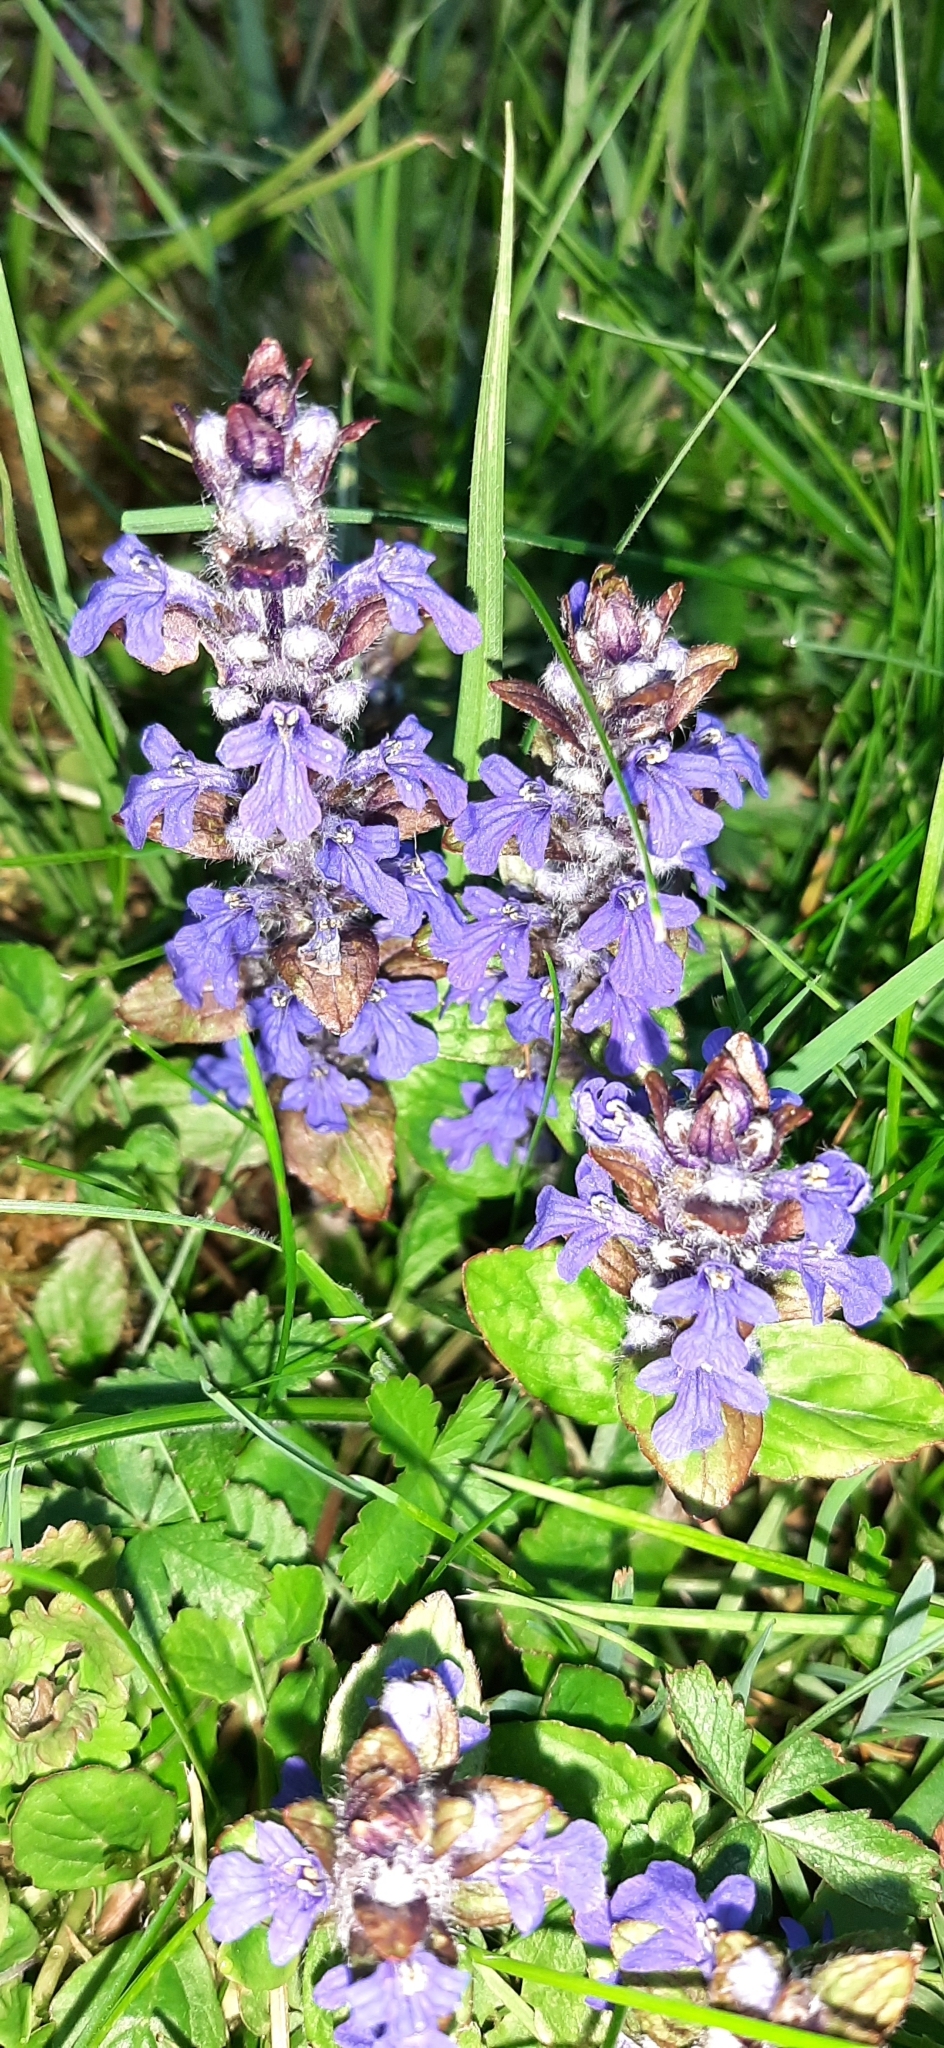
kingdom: Plantae
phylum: Tracheophyta
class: Magnoliopsida
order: Lamiales
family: Lamiaceae
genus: Ajuga
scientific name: Ajuga reptans
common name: Bugle
